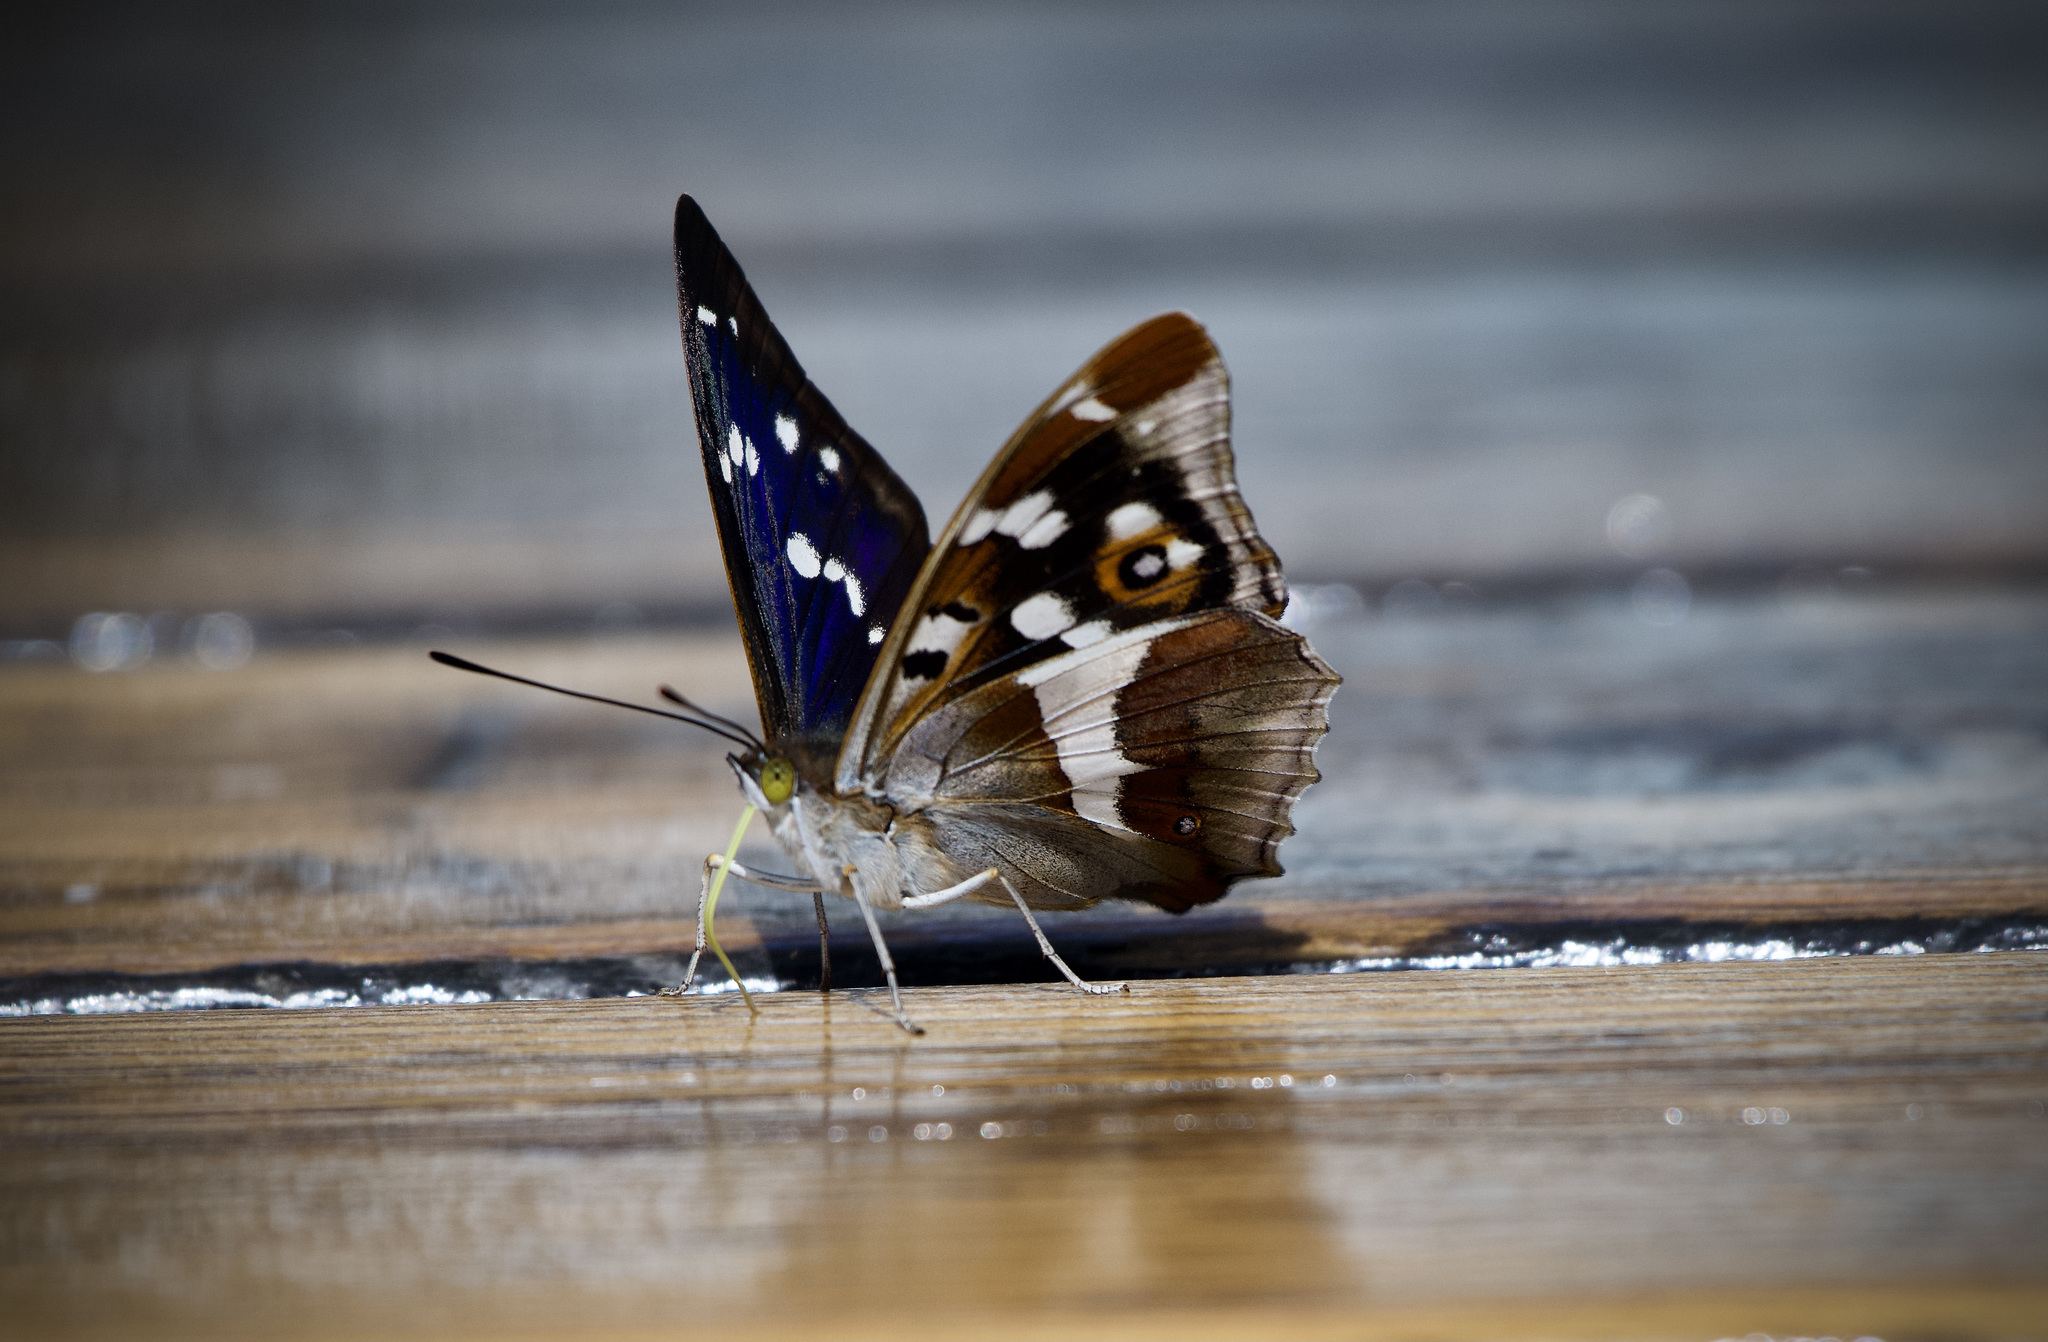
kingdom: Animalia
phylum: Arthropoda
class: Insecta
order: Lepidoptera
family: Nymphalidae
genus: Apatura
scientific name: Apatura iris
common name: Purple emperor
